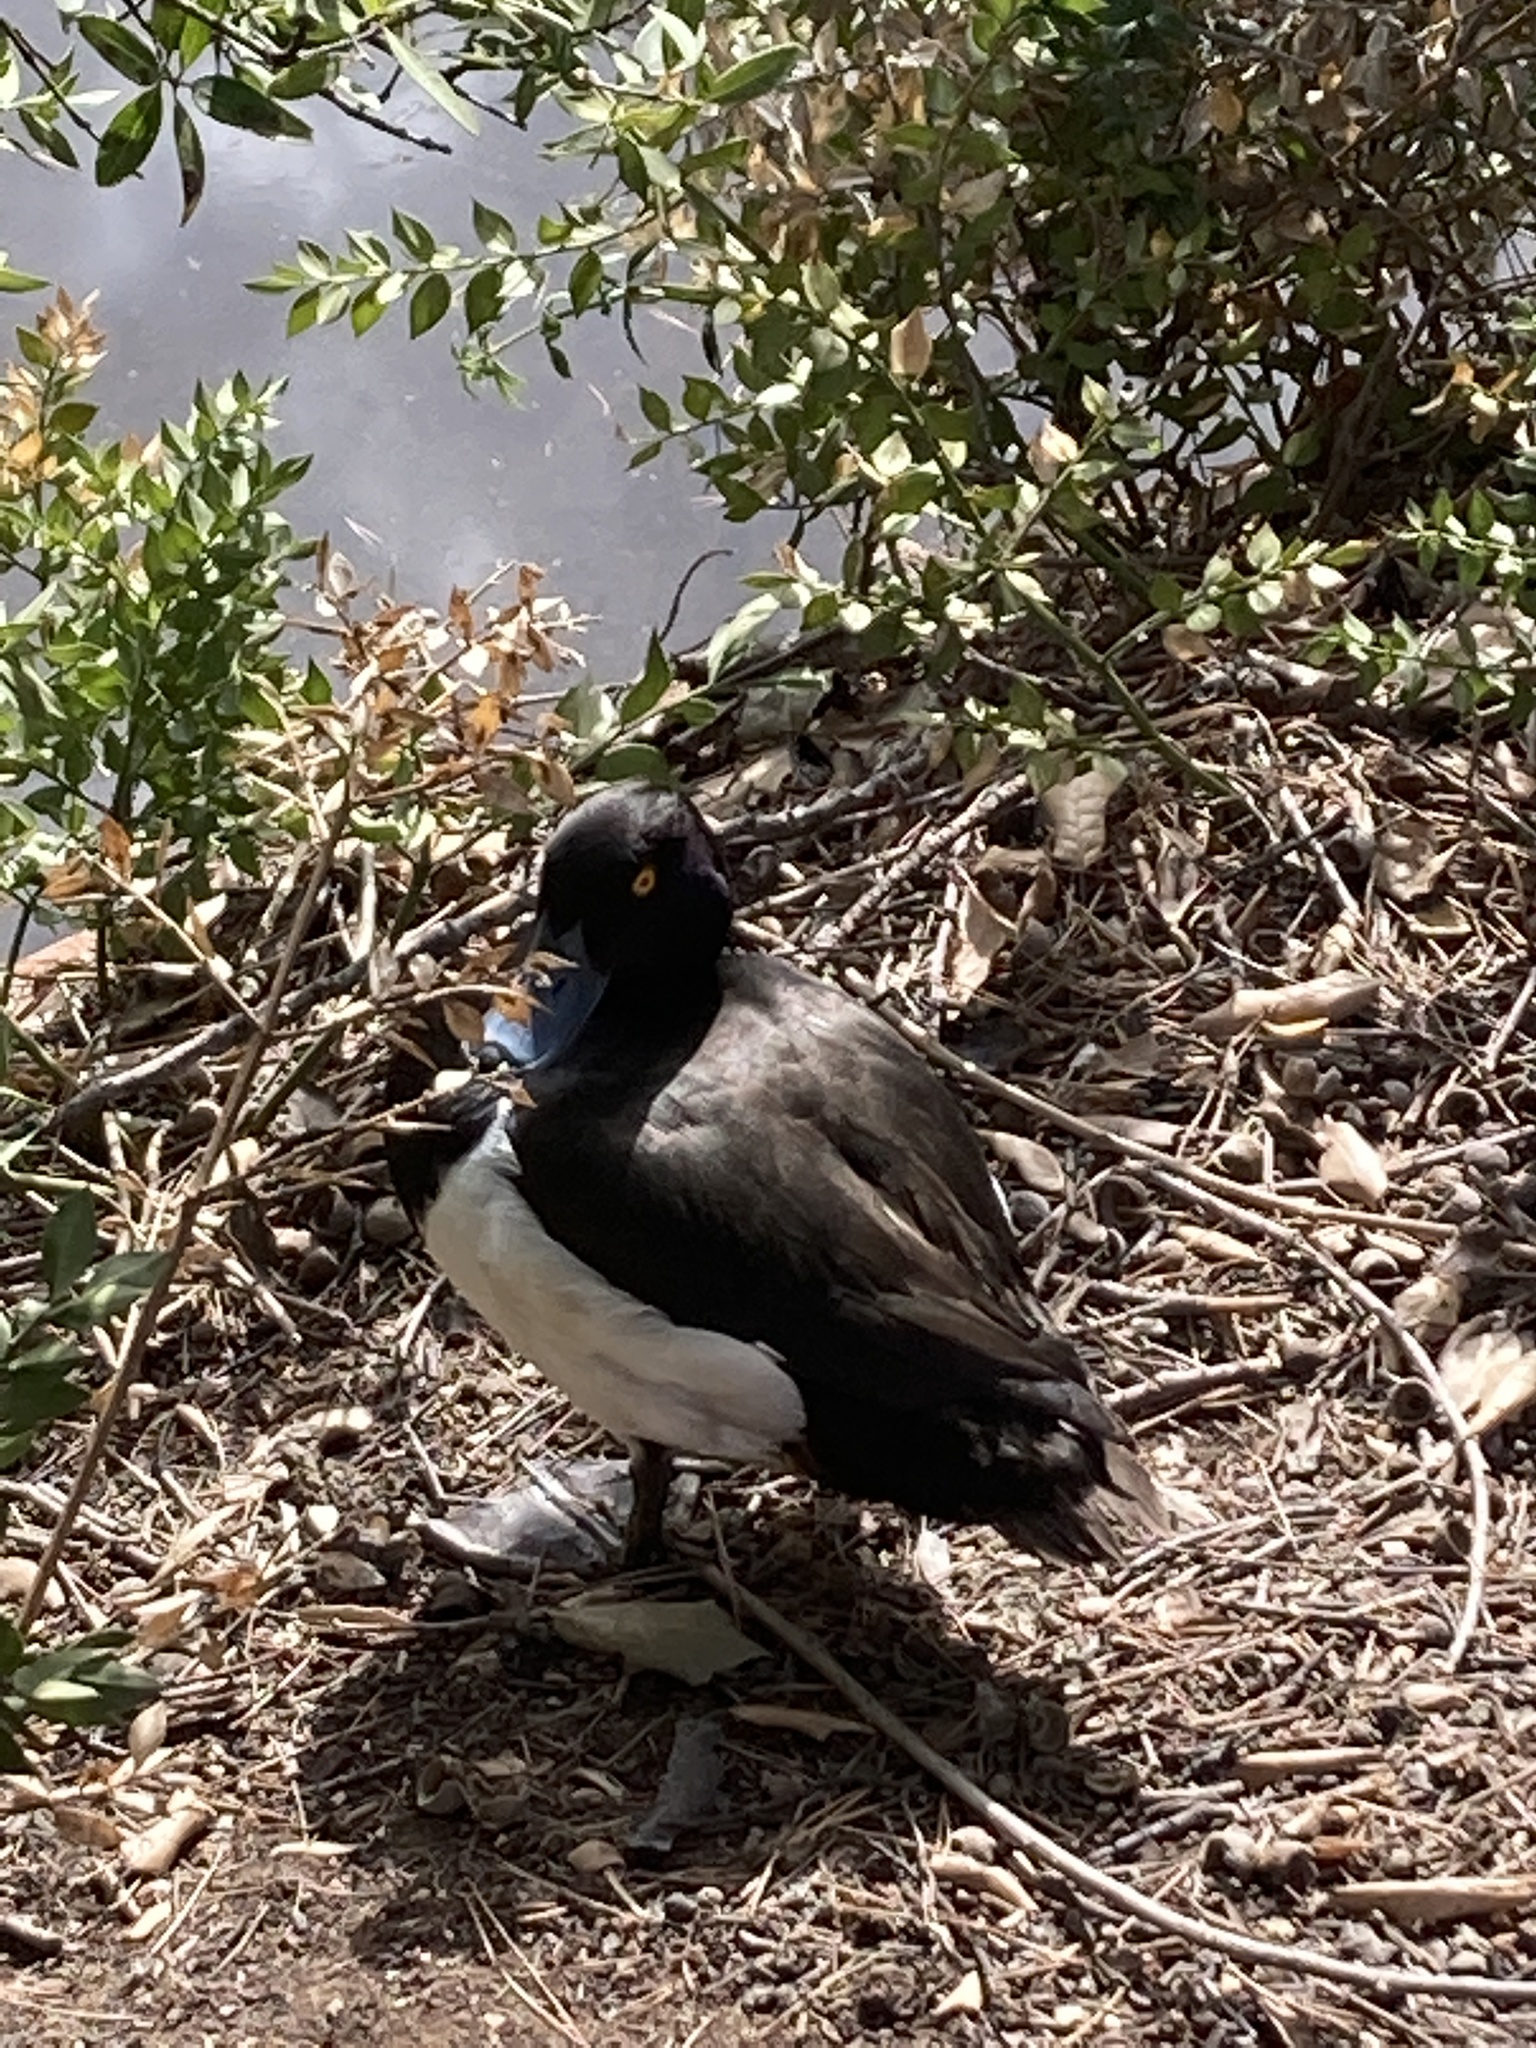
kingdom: Animalia
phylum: Chordata
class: Aves
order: Anseriformes
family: Anatidae
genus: Aythya
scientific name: Aythya fuligula
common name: Tufted duck
